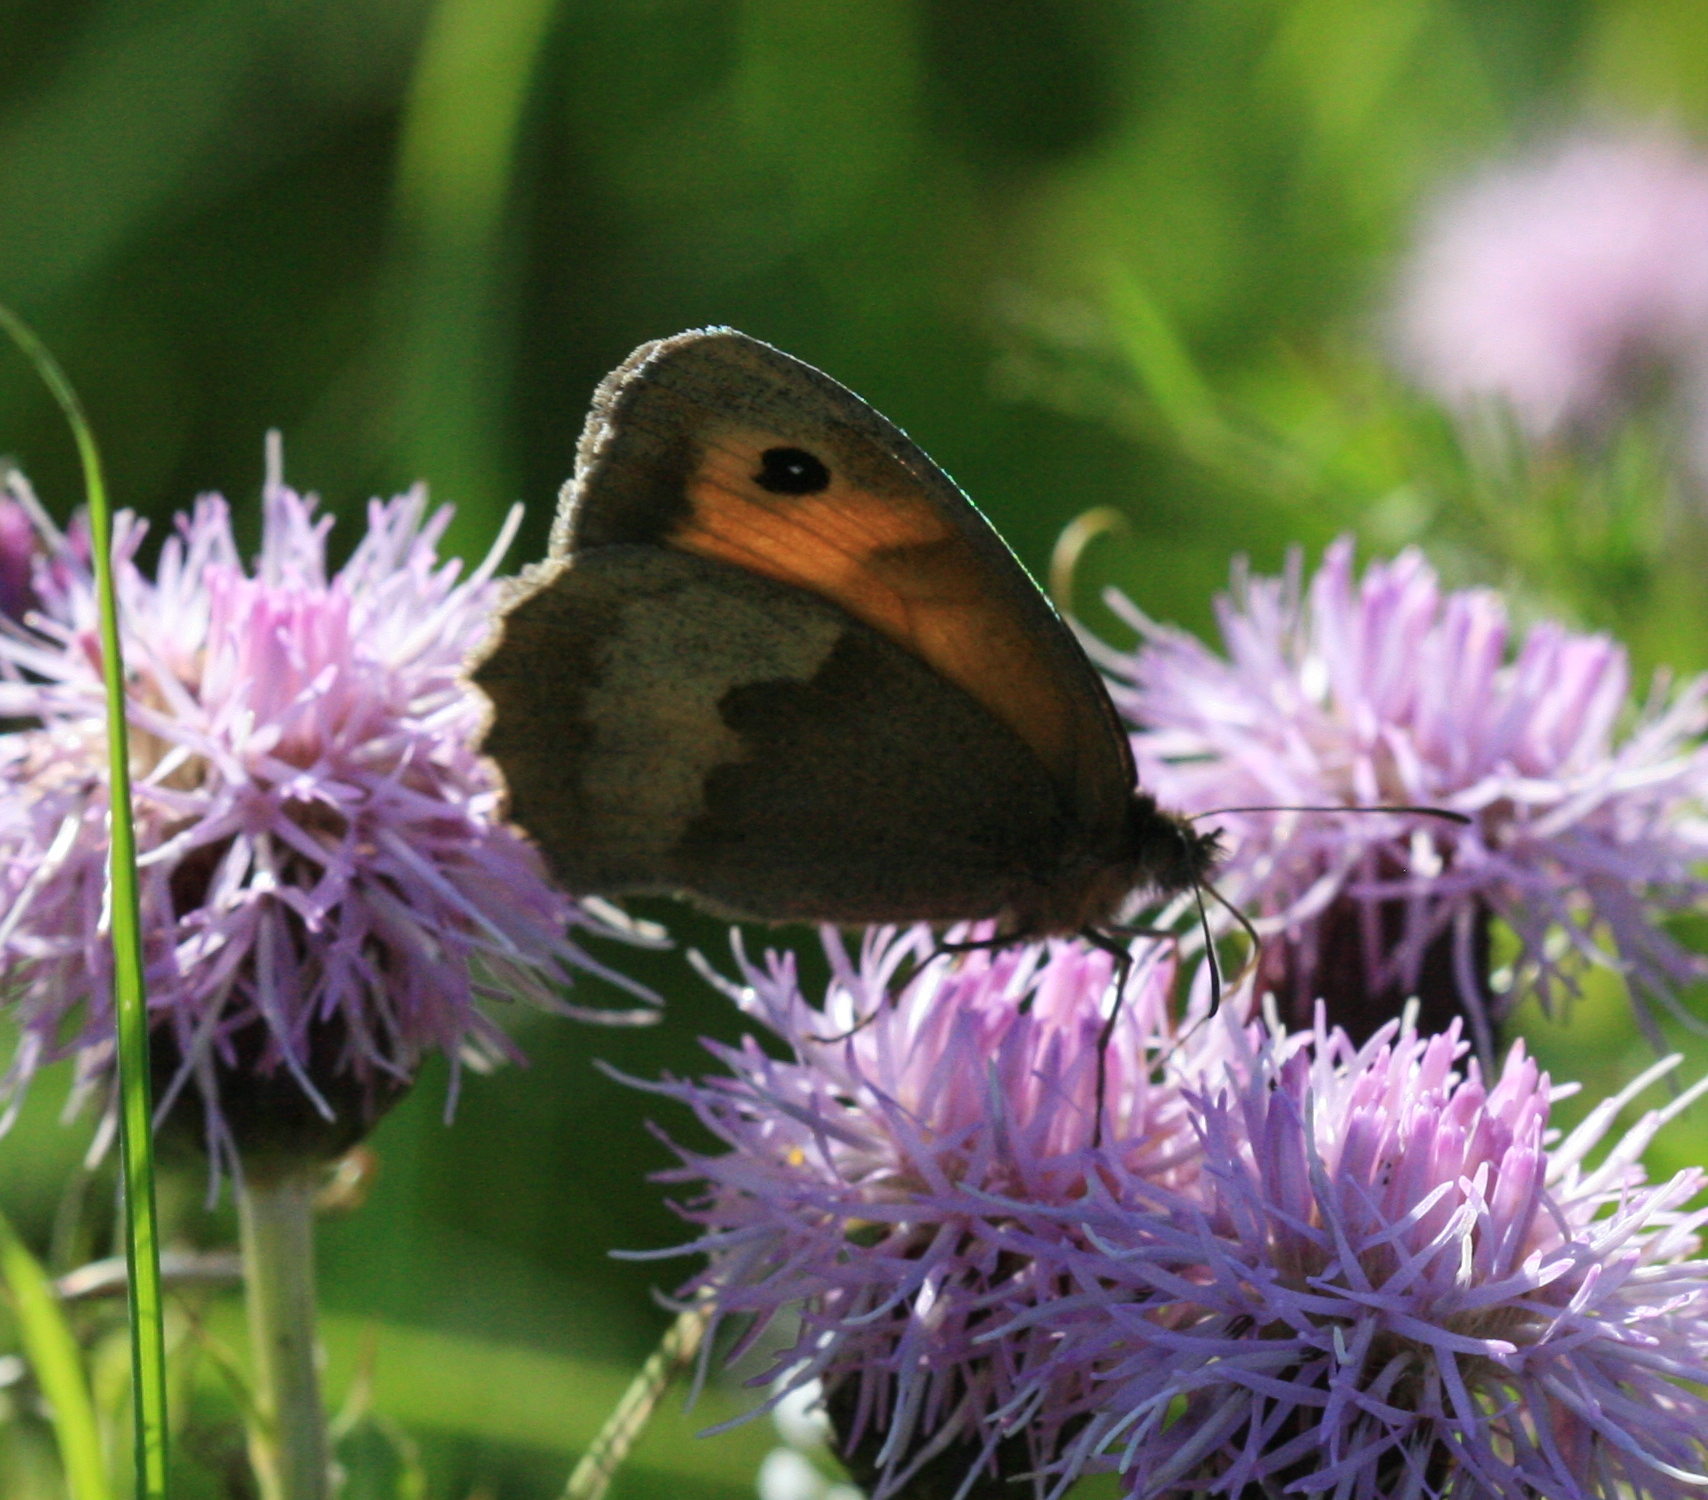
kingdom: Animalia
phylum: Arthropoda
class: Insecta
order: Lepidoptera
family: Nymphalidae
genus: Maniola
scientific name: Maniola jurtina
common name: Meadow brown
